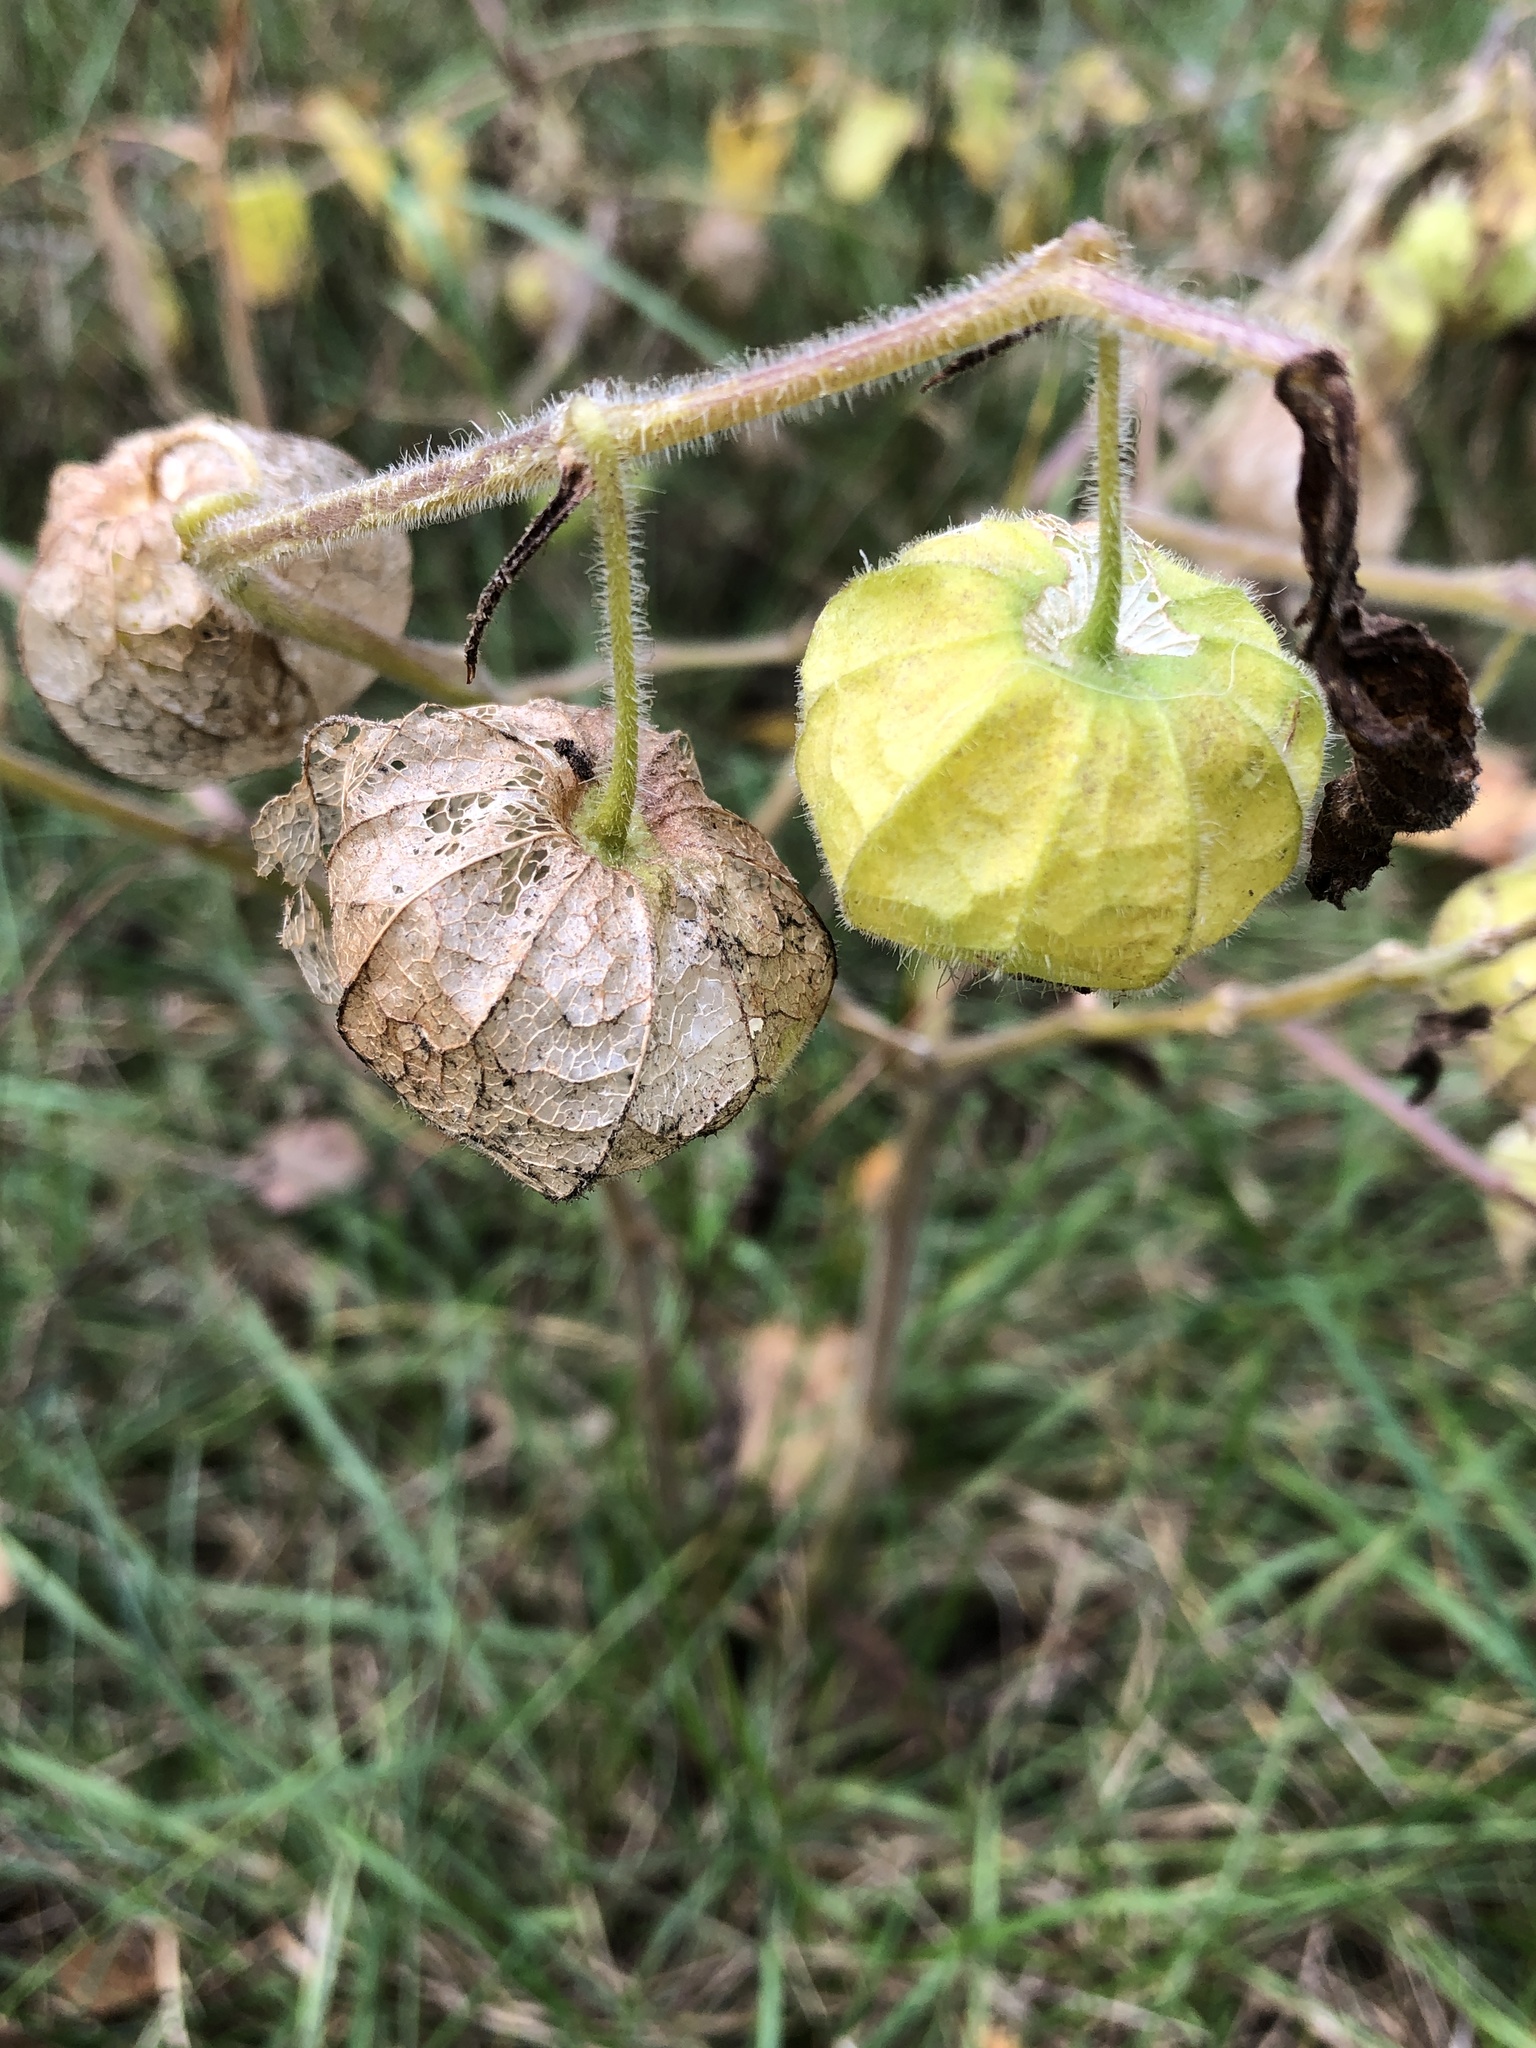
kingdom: Plantae
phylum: Tracheophyta
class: Magnoliopsida
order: Solanales
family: Solanaceae
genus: Physalis
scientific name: Physalis heterophylla
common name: Clammy ground-cherry
